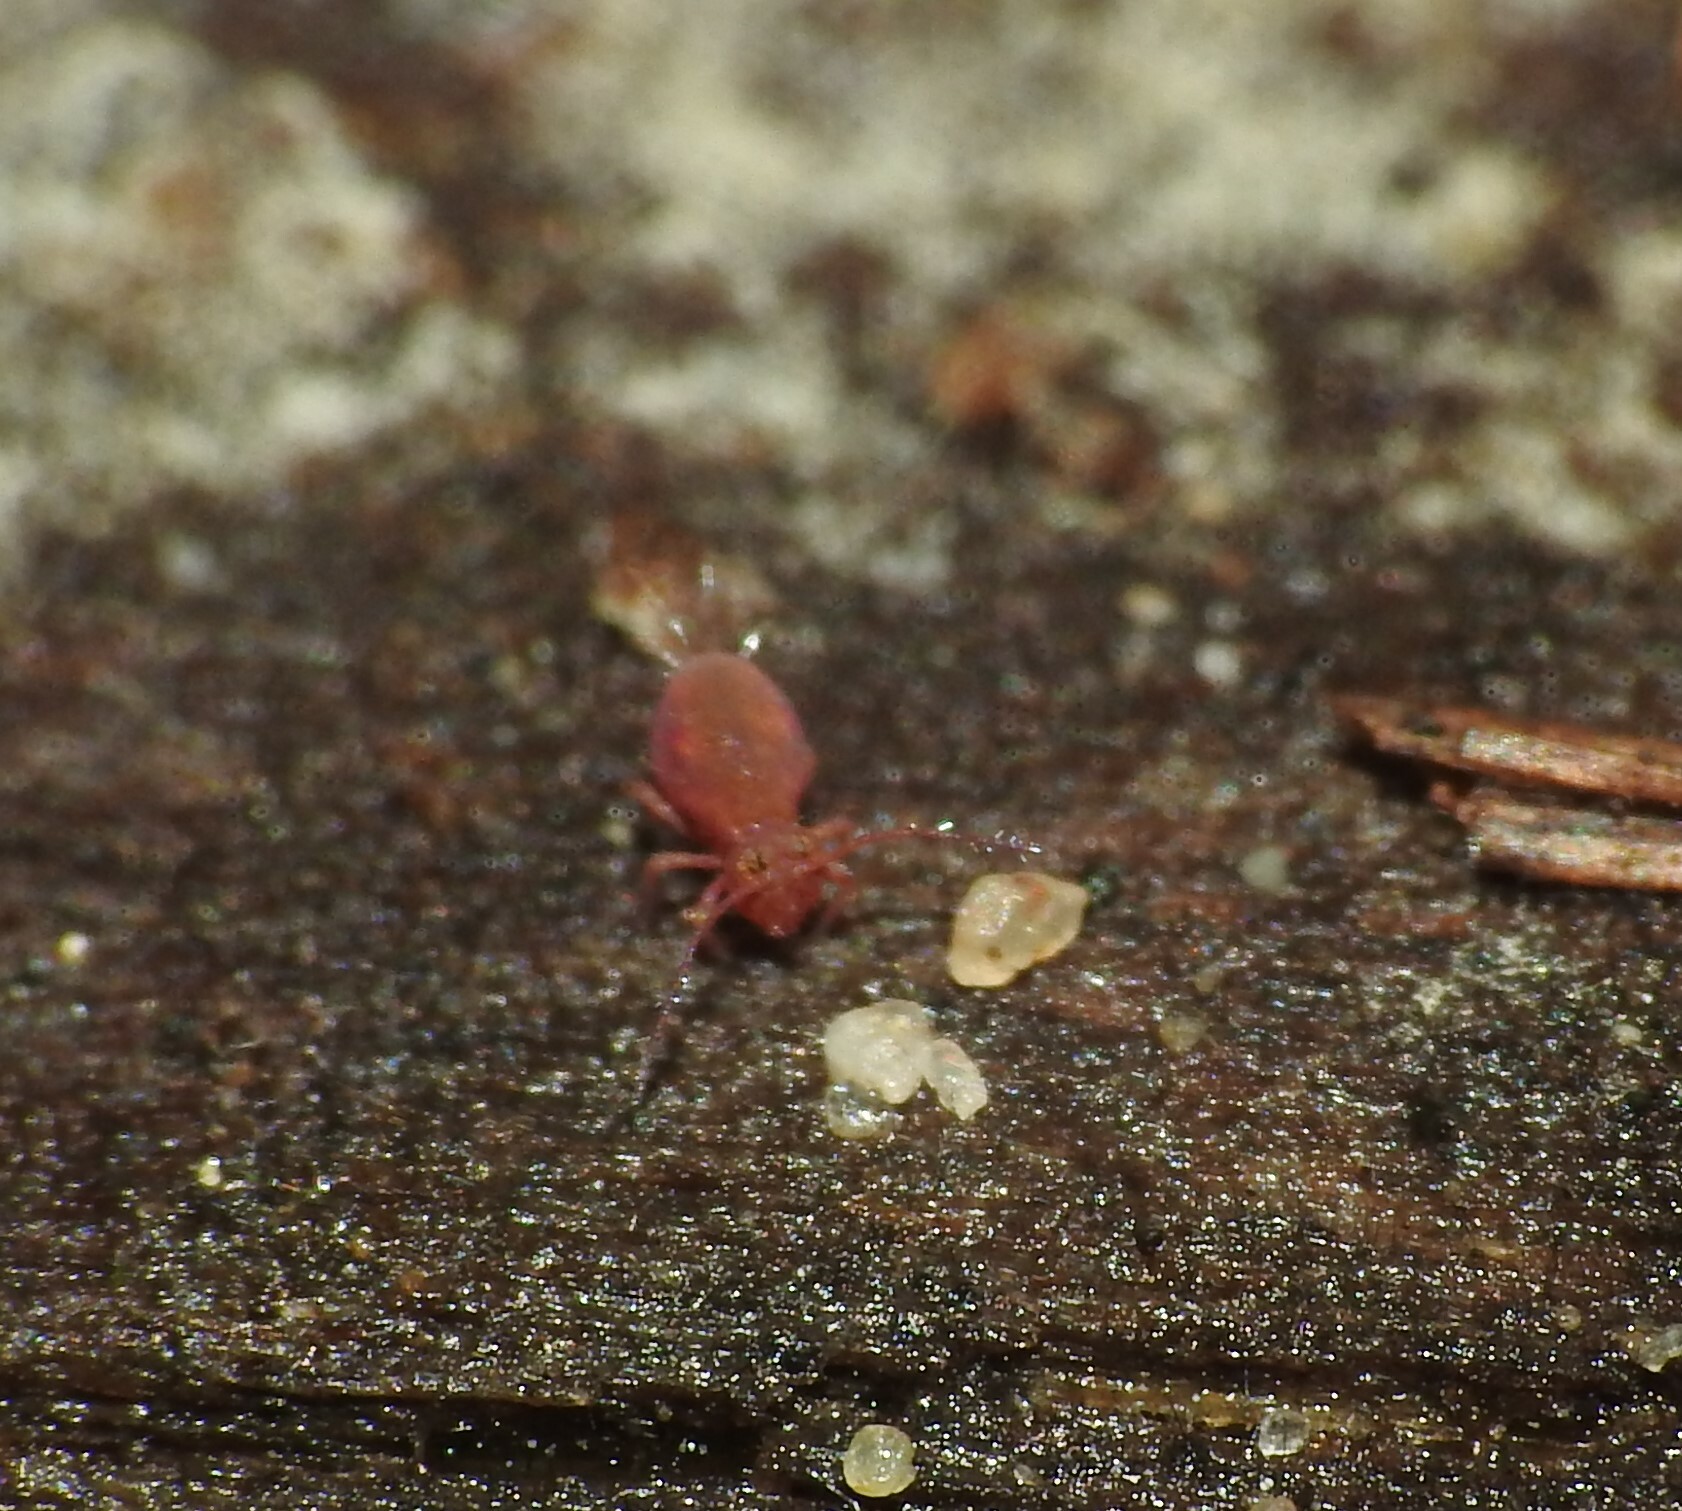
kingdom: Animalia
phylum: Arthropoda
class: Collembola
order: Symphypleona
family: Dicyrtomidae
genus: Dicyrtoma
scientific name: Dicyrtoma fusca
